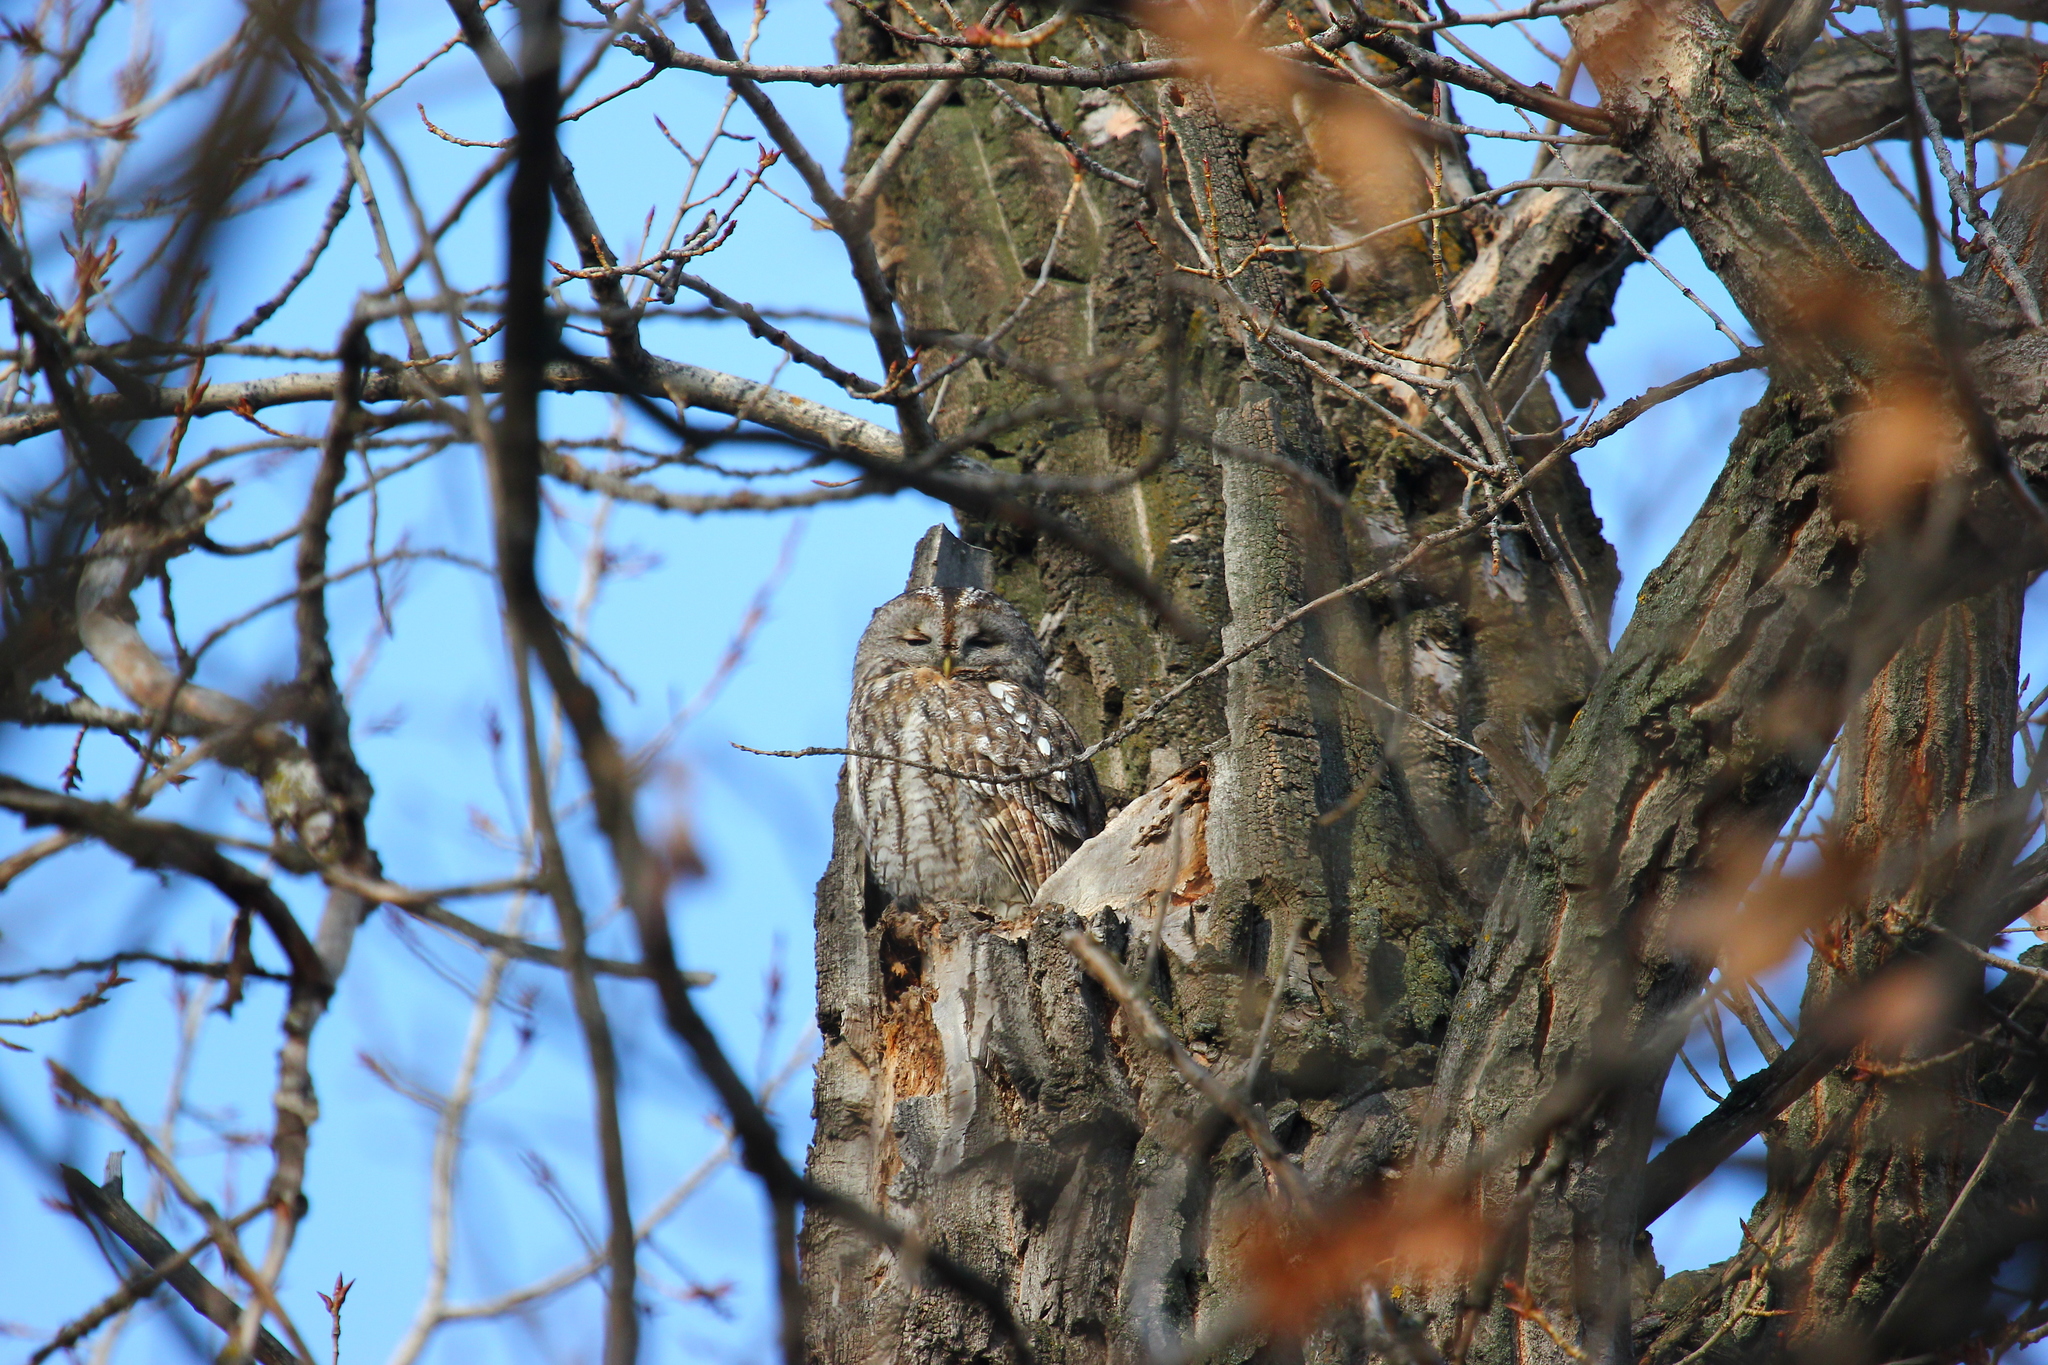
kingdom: Animalia
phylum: Chordata
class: Aves
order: Strigiformes
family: Strigidae
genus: Strix
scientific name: Strix aluco
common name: Tawny owl
